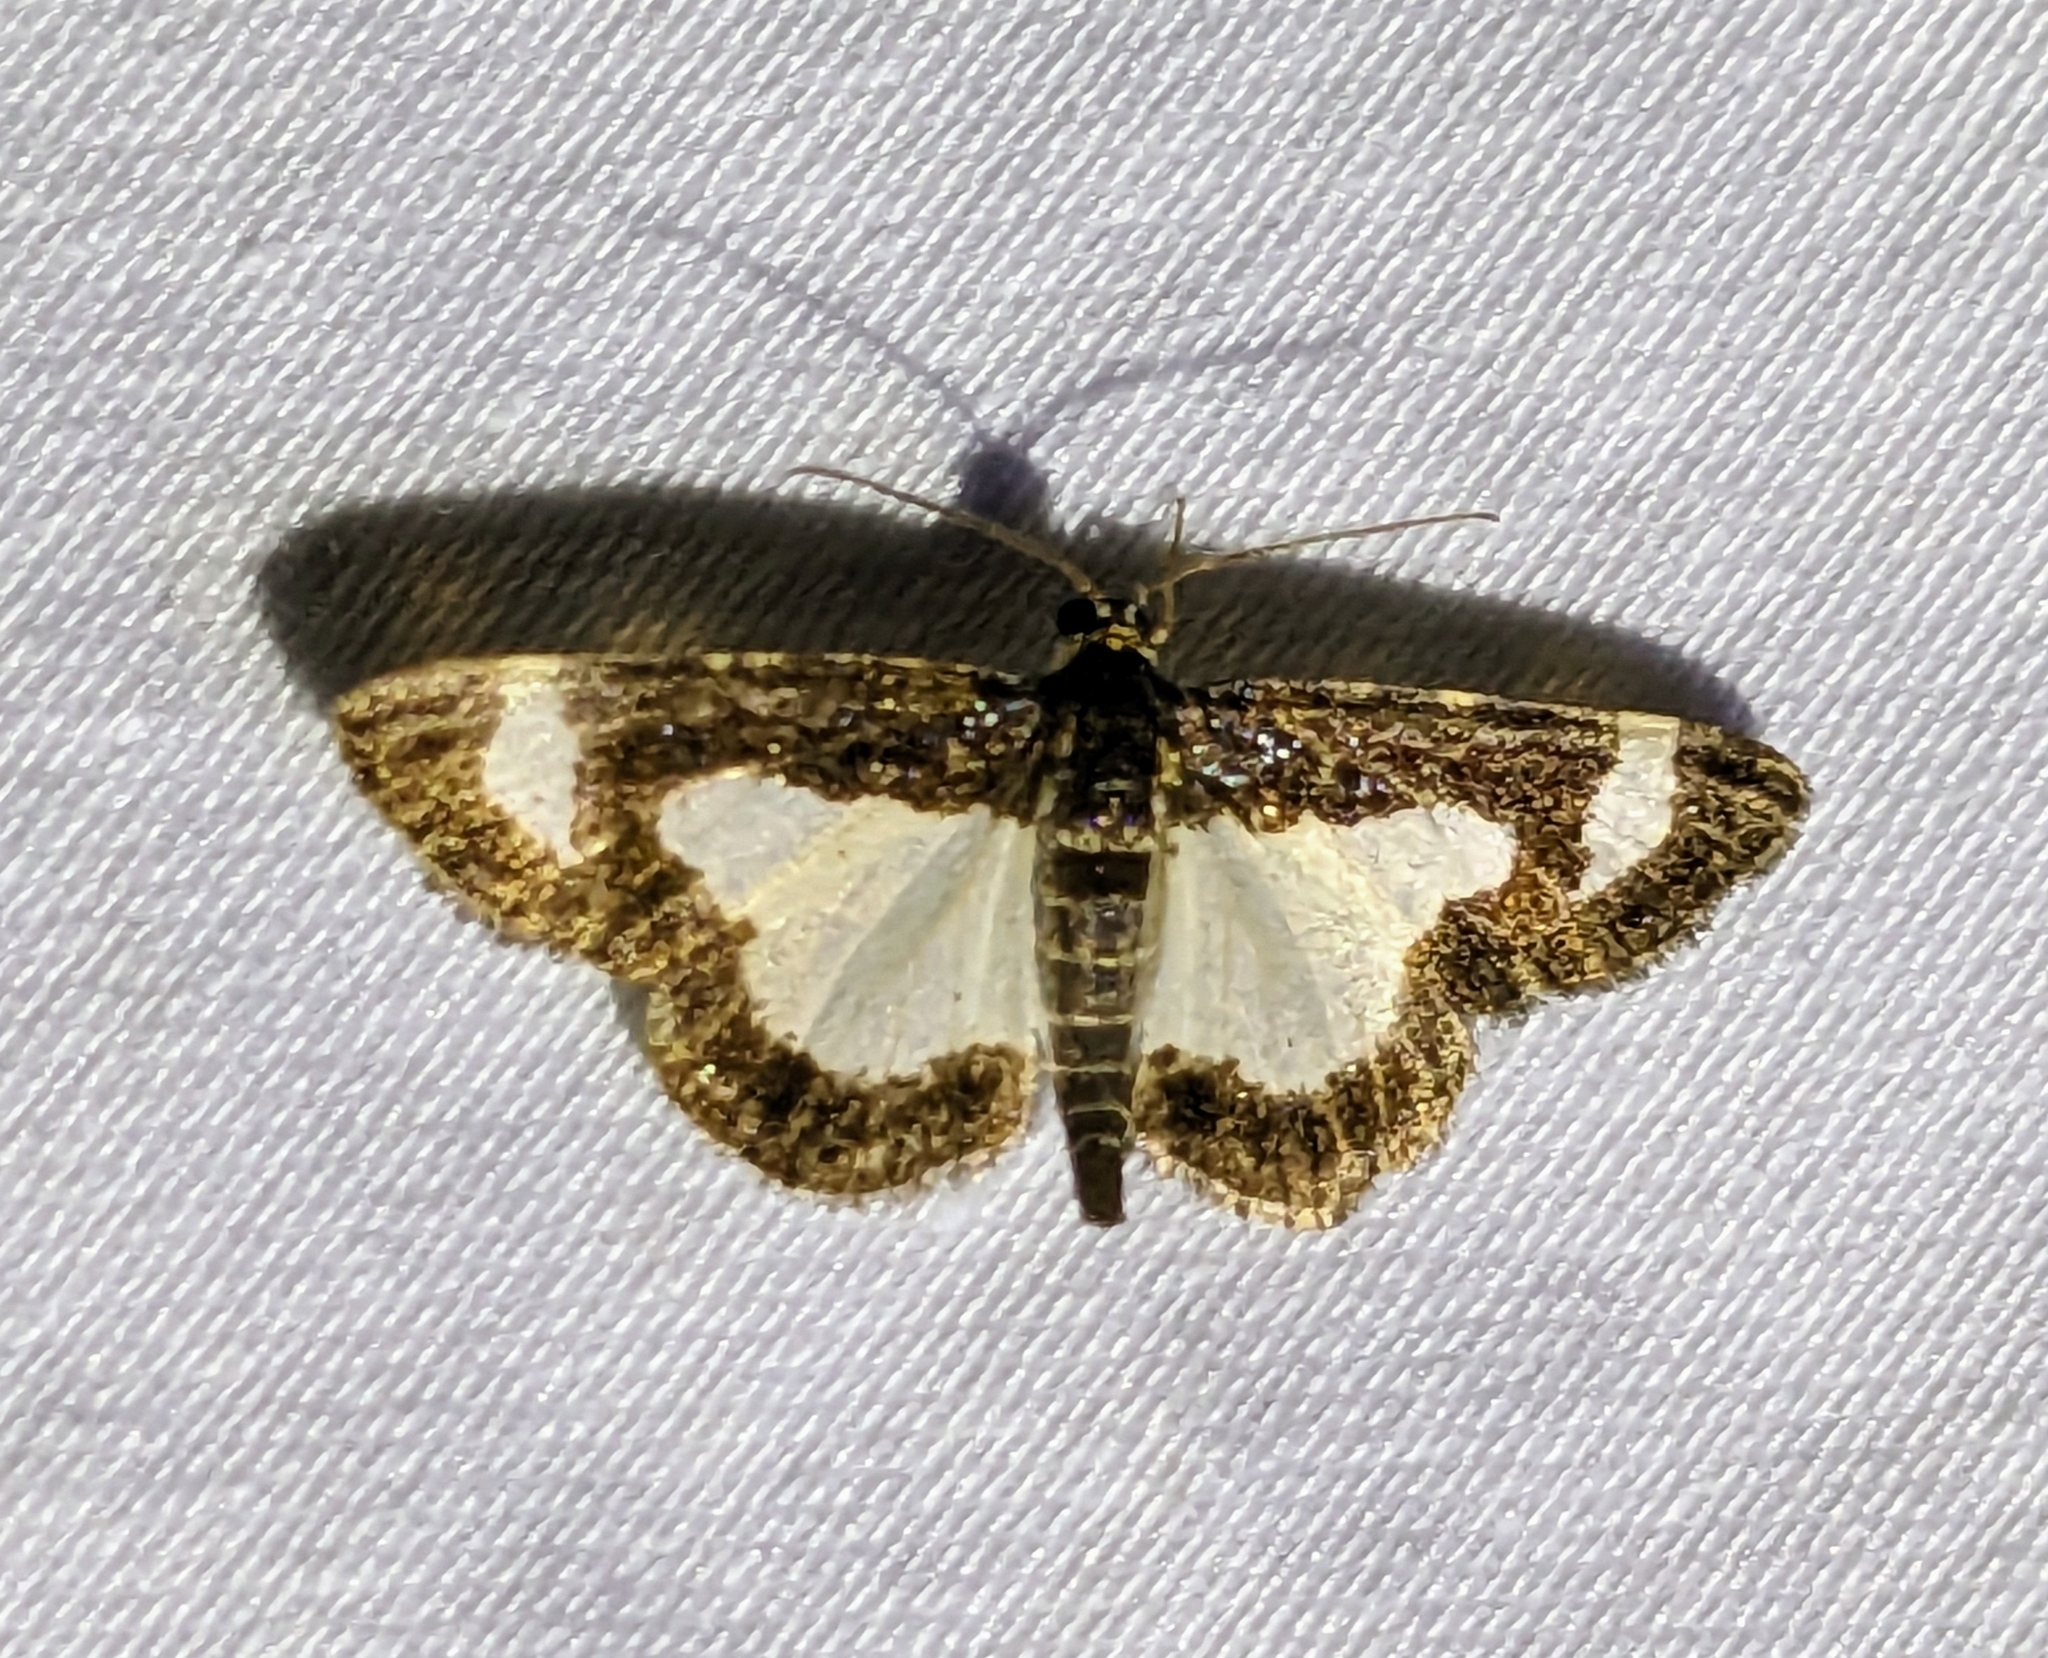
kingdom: Animalia
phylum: Arthropoda
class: Insecta
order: Lepidoptera
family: Geometridae
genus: Heliomata
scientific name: Heliomata cycladata
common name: Common spring moth
